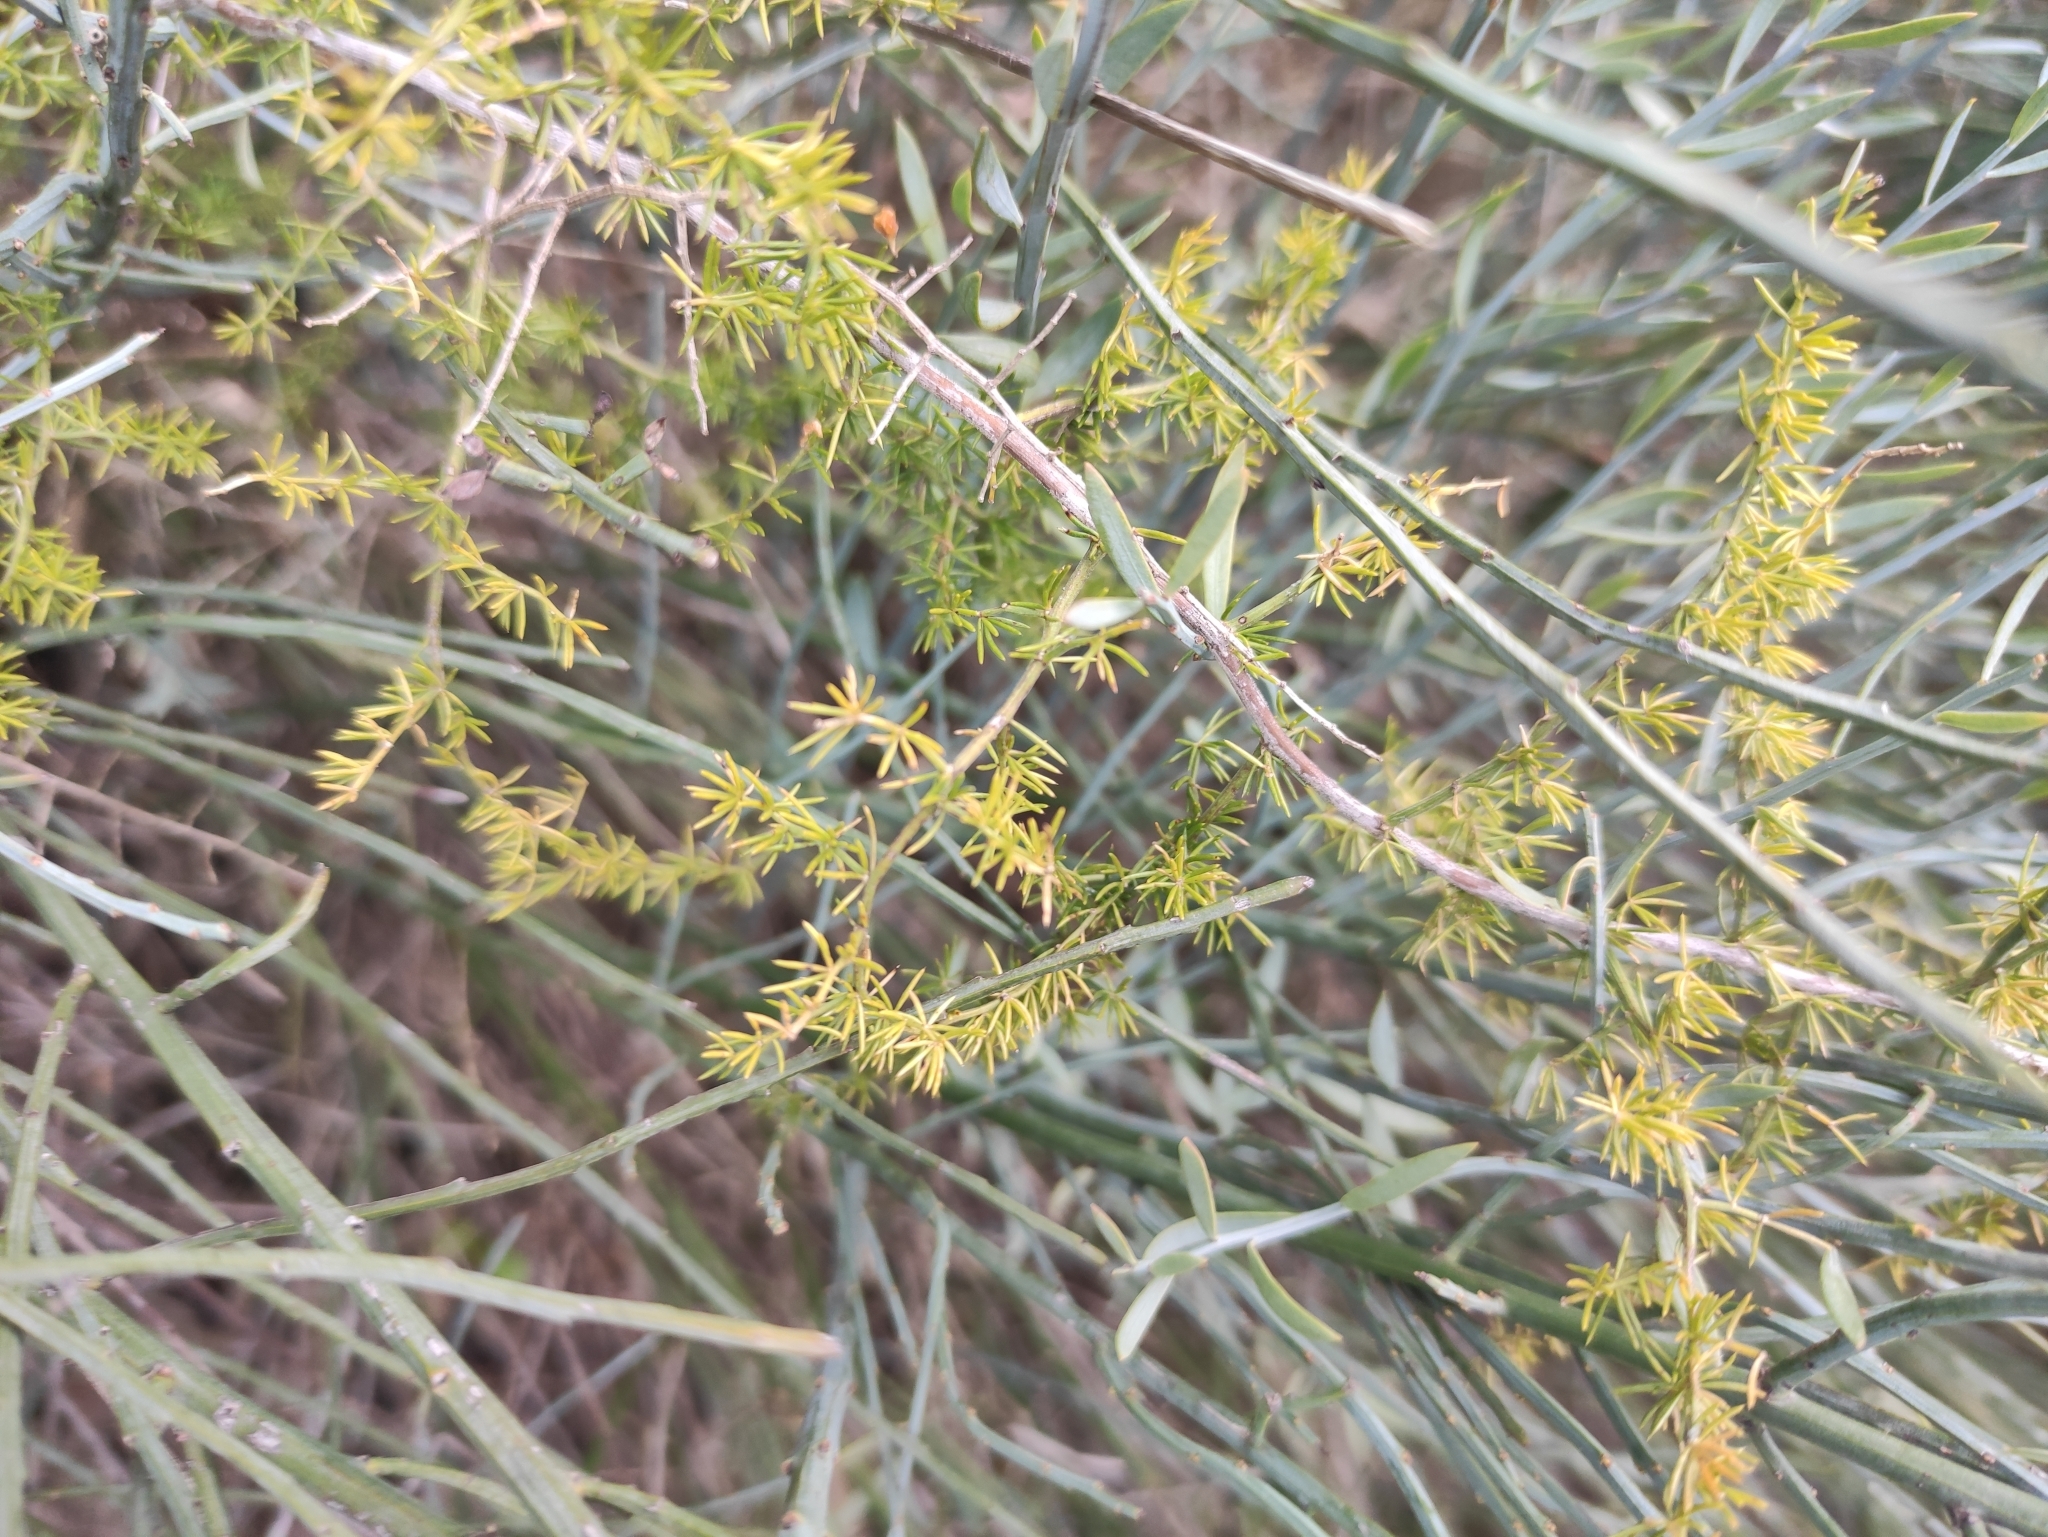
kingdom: Plantae
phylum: Tracheophyta
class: Liliopsida
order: Asparagales
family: Asparagaceae
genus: Asparagus
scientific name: Asparagus acutifolius
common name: Wild asparagus
